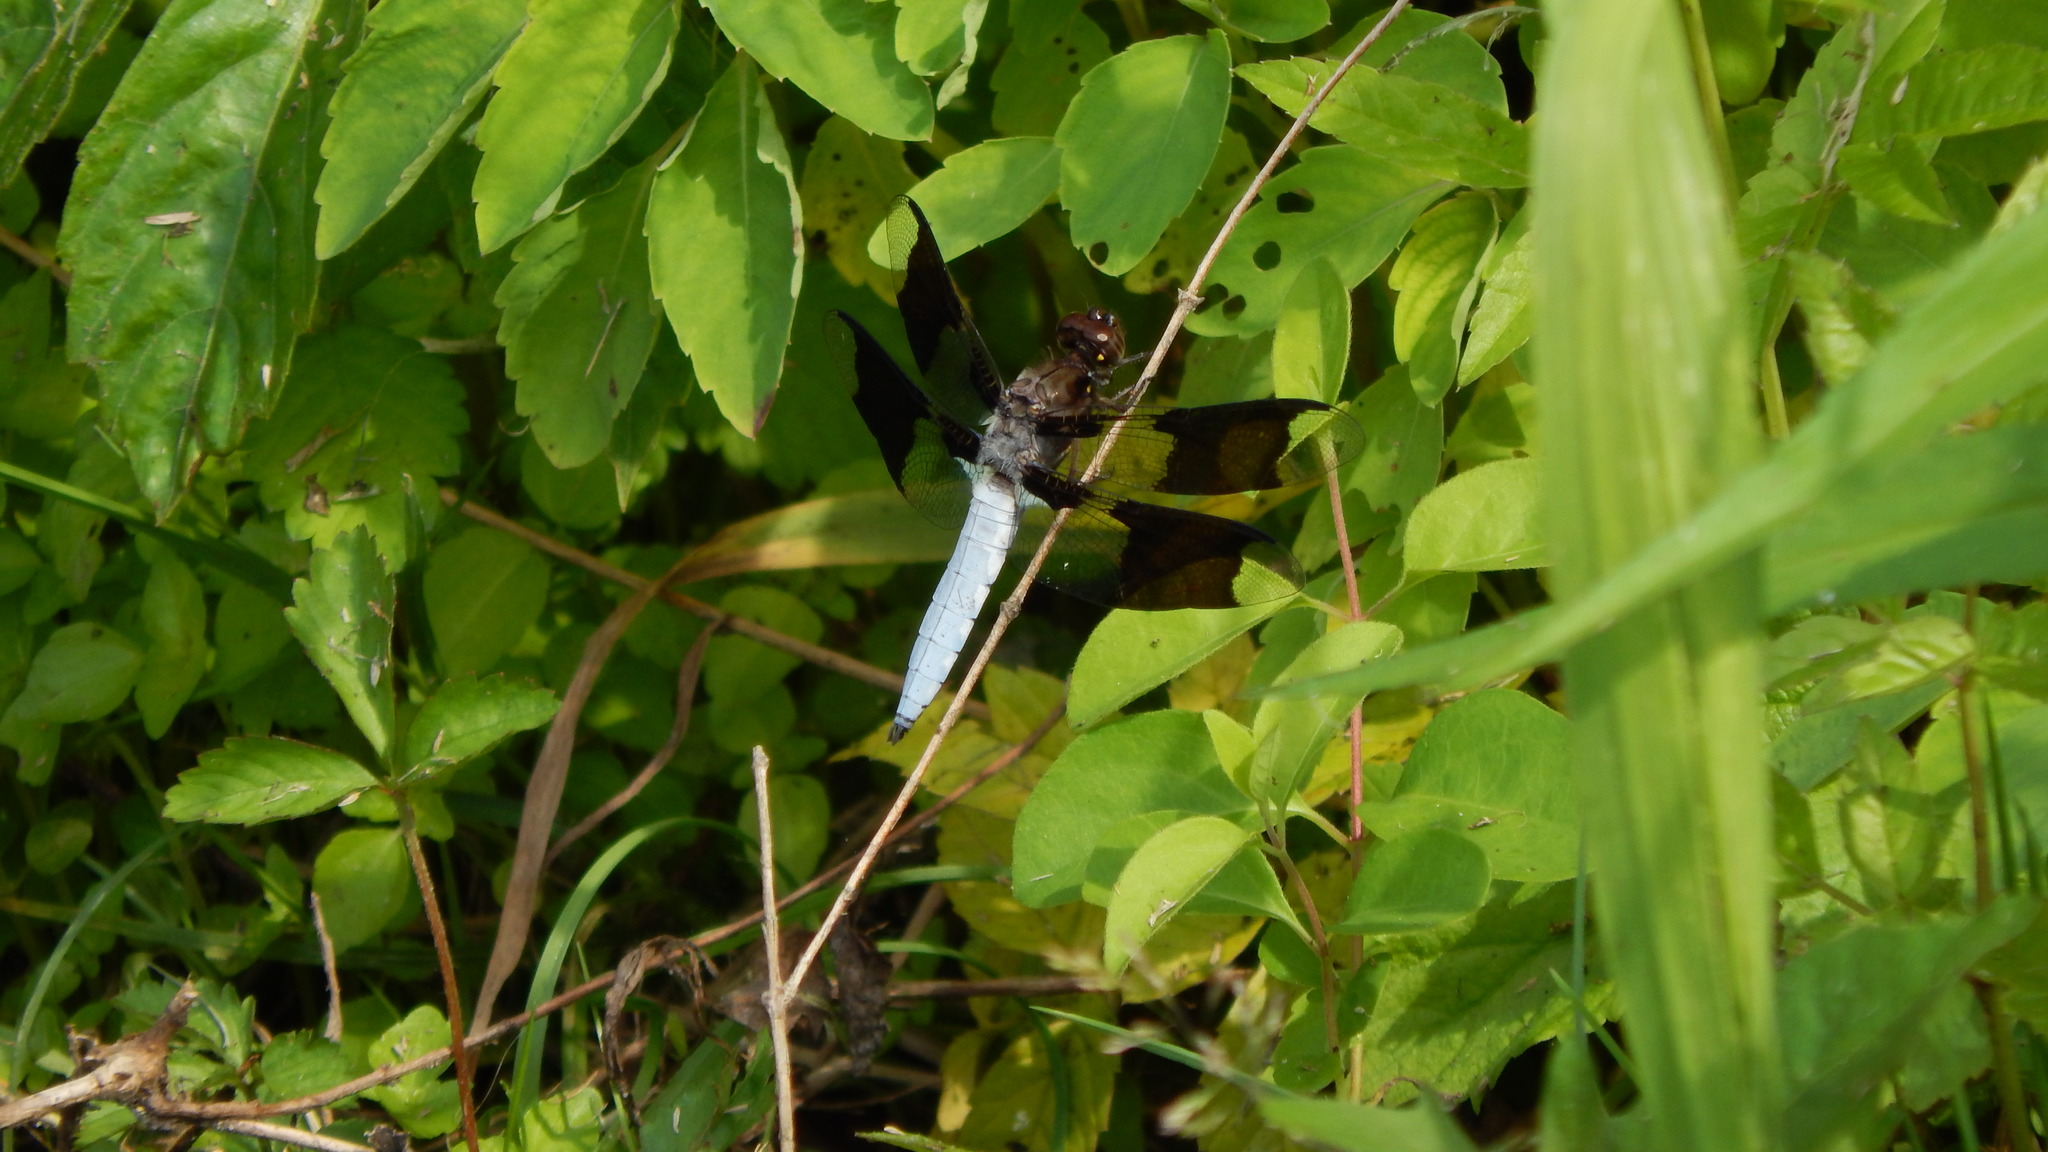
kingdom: Animalia
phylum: Arthropoda
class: Insecta
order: Odonata
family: Libellulidae
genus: Plathemis
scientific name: Plathemis lydia
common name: Common whitetail
